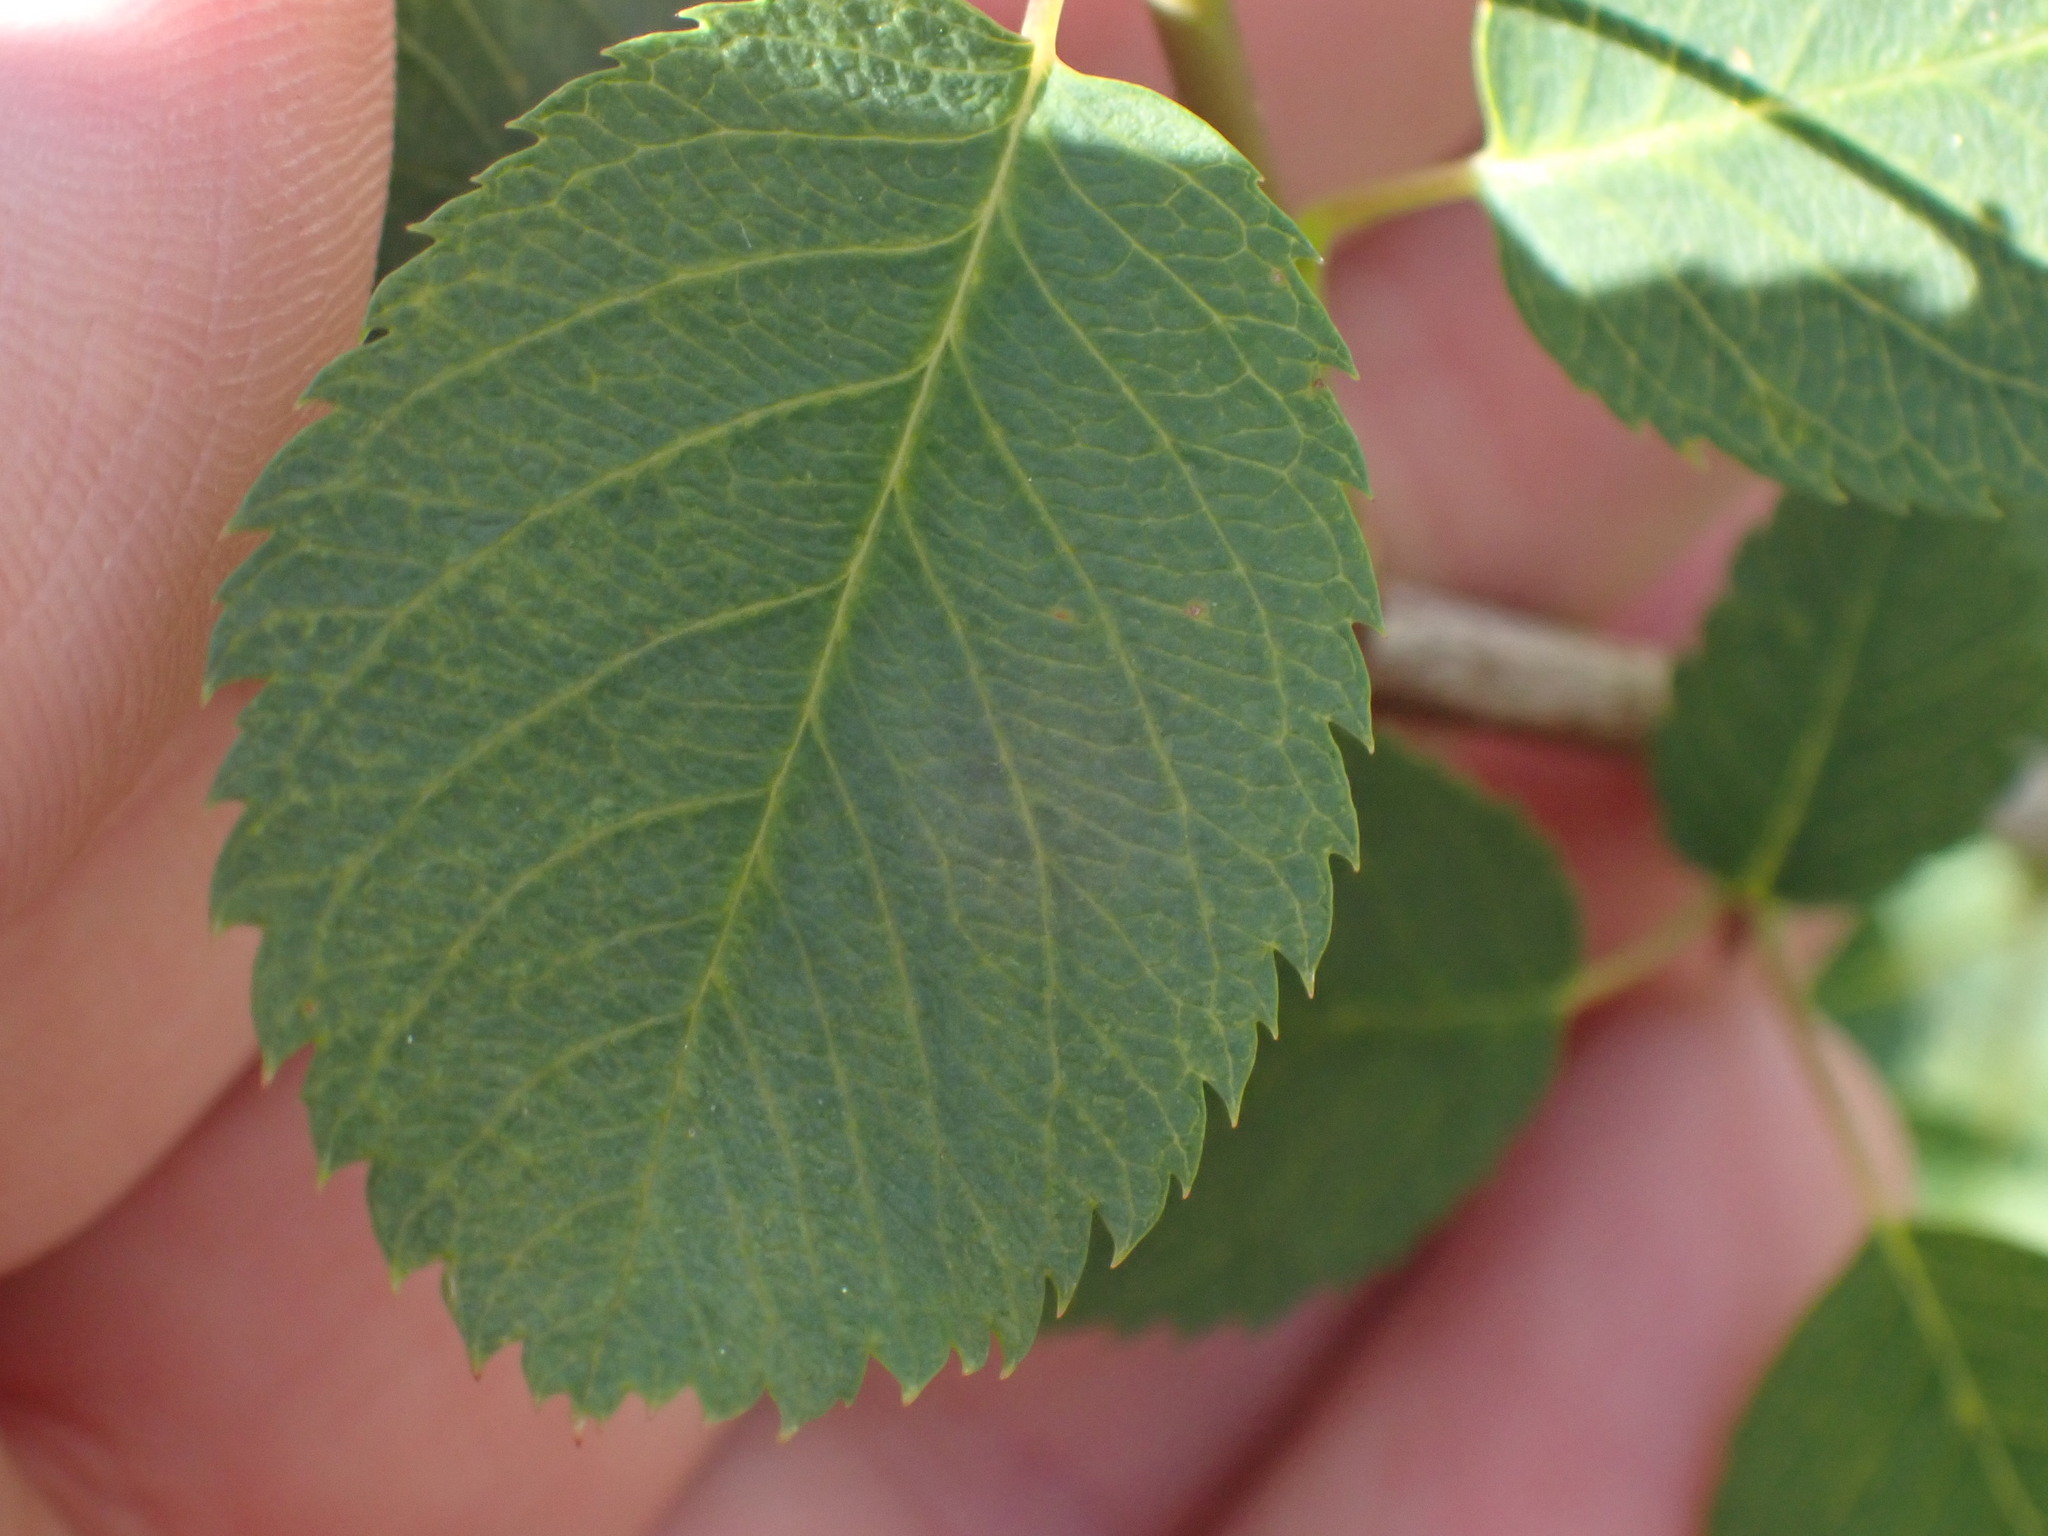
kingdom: Plantae
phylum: Tracheophyta
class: Magnoliopsida
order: Rosales
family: Rosaceae
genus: Amelanchier
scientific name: Amelanchier alnifolia
